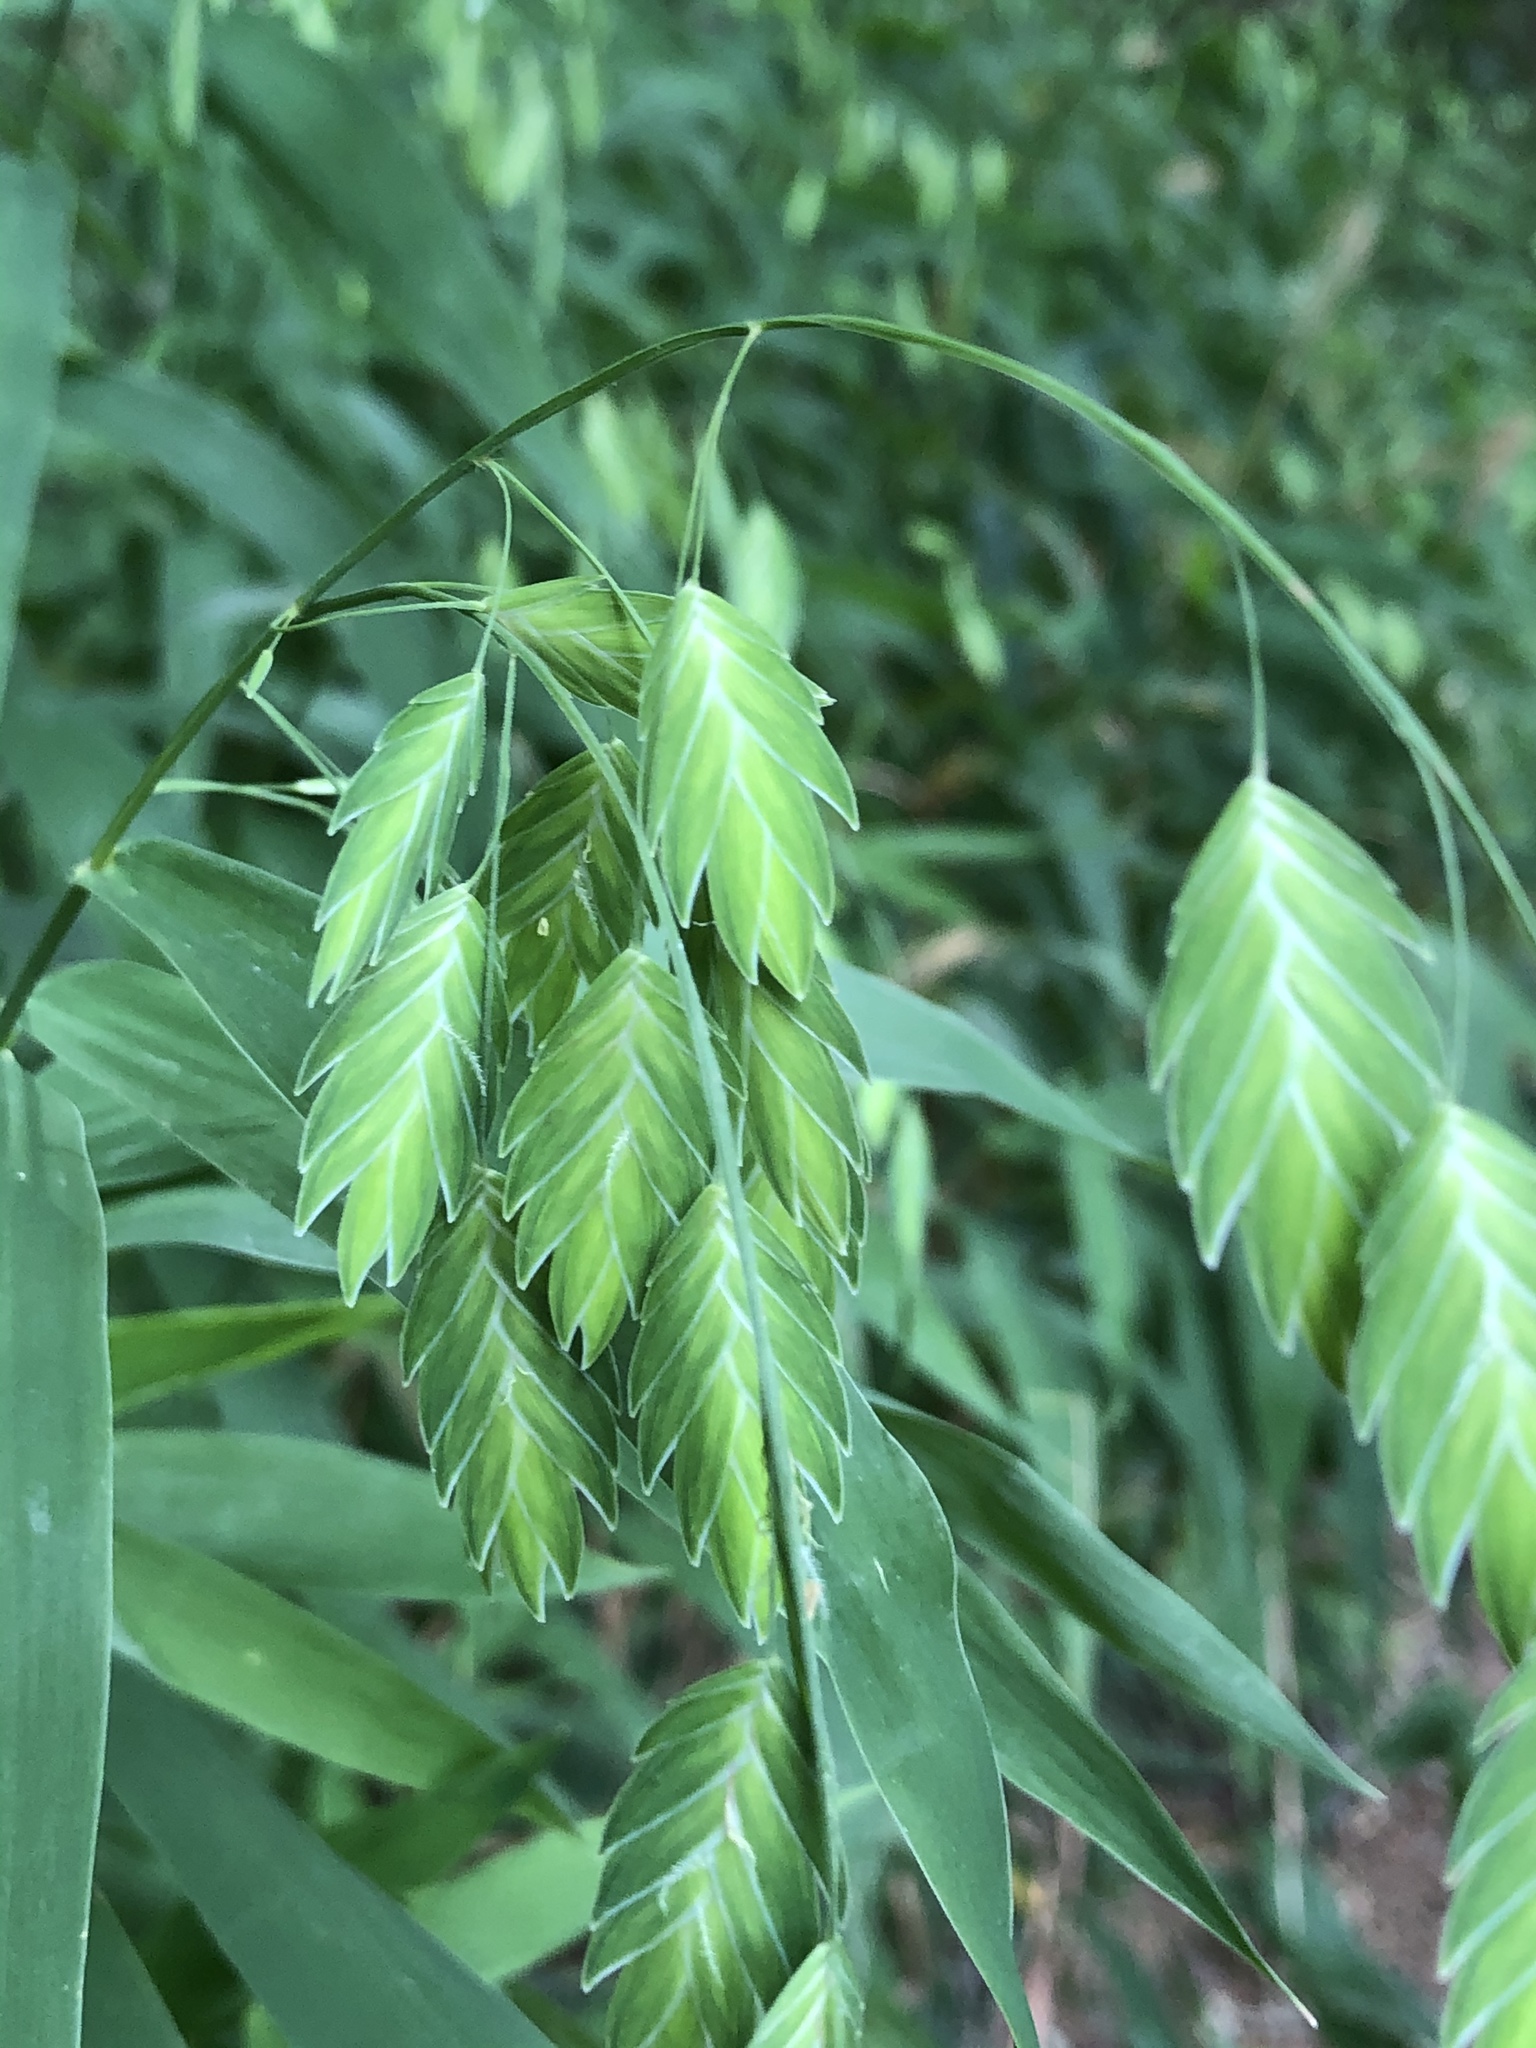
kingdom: Plantae
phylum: Tracheophyta
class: Liliopsida
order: Poales
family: Poaceae
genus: Chasmanthium
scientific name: Chasmanthium latifolium
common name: Broad-leaved chasmanthium
